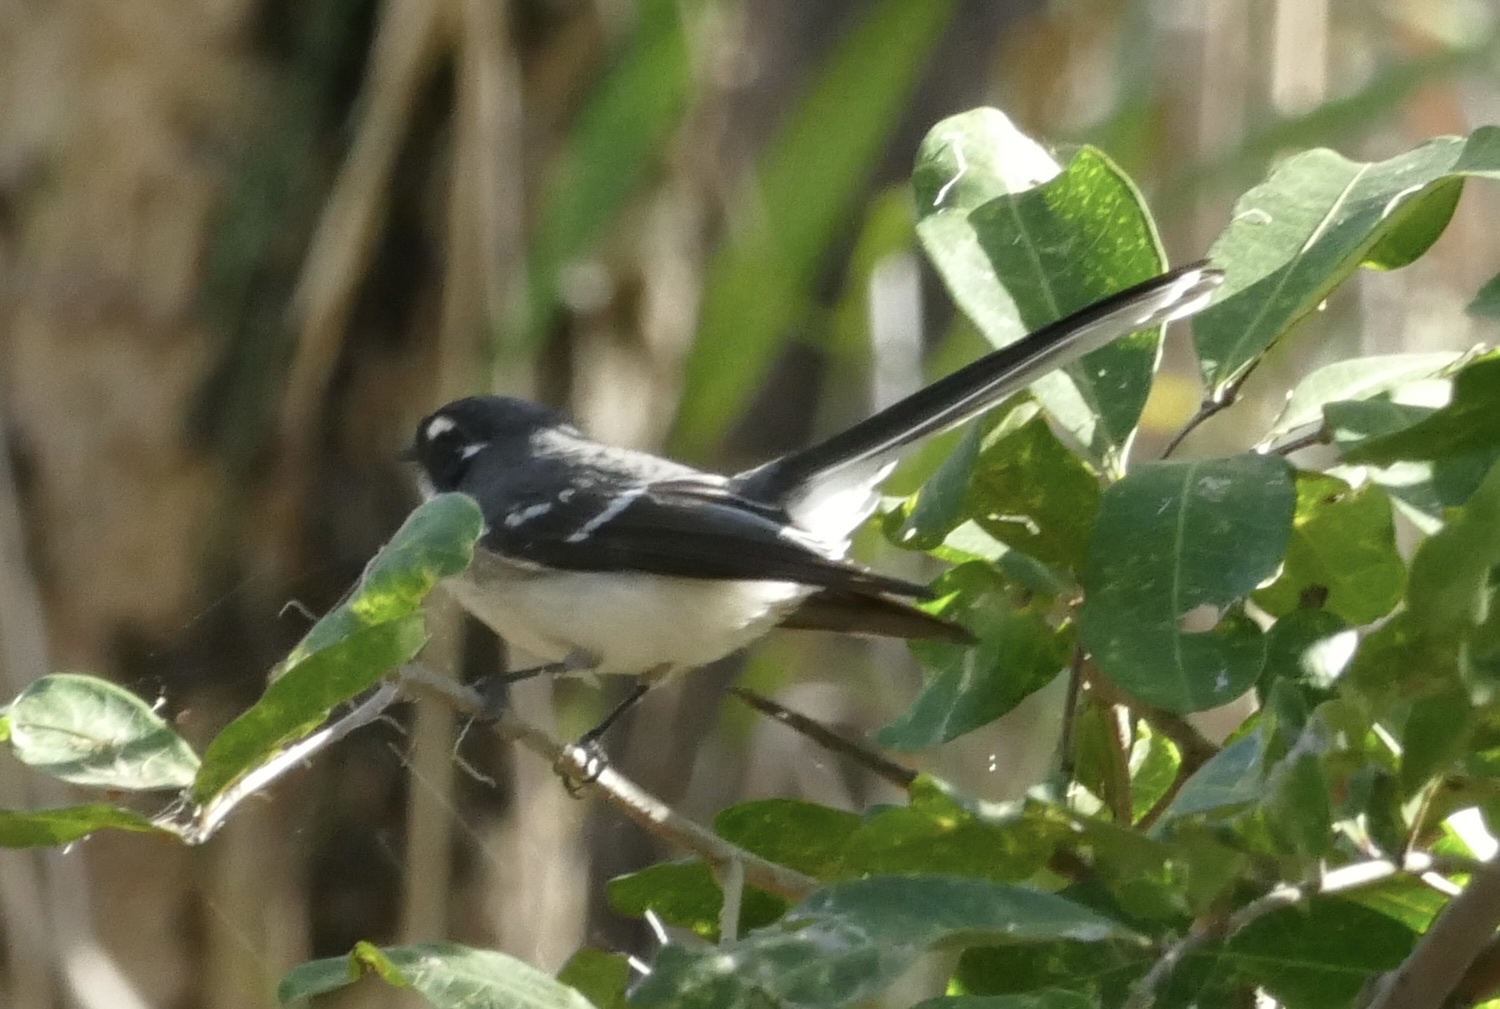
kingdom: Animalia
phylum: Chordata
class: Aves
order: Passeriformes
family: Rhipiduridae
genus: Rhipidura
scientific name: Rhipidura albiscapa
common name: Grey fantail
